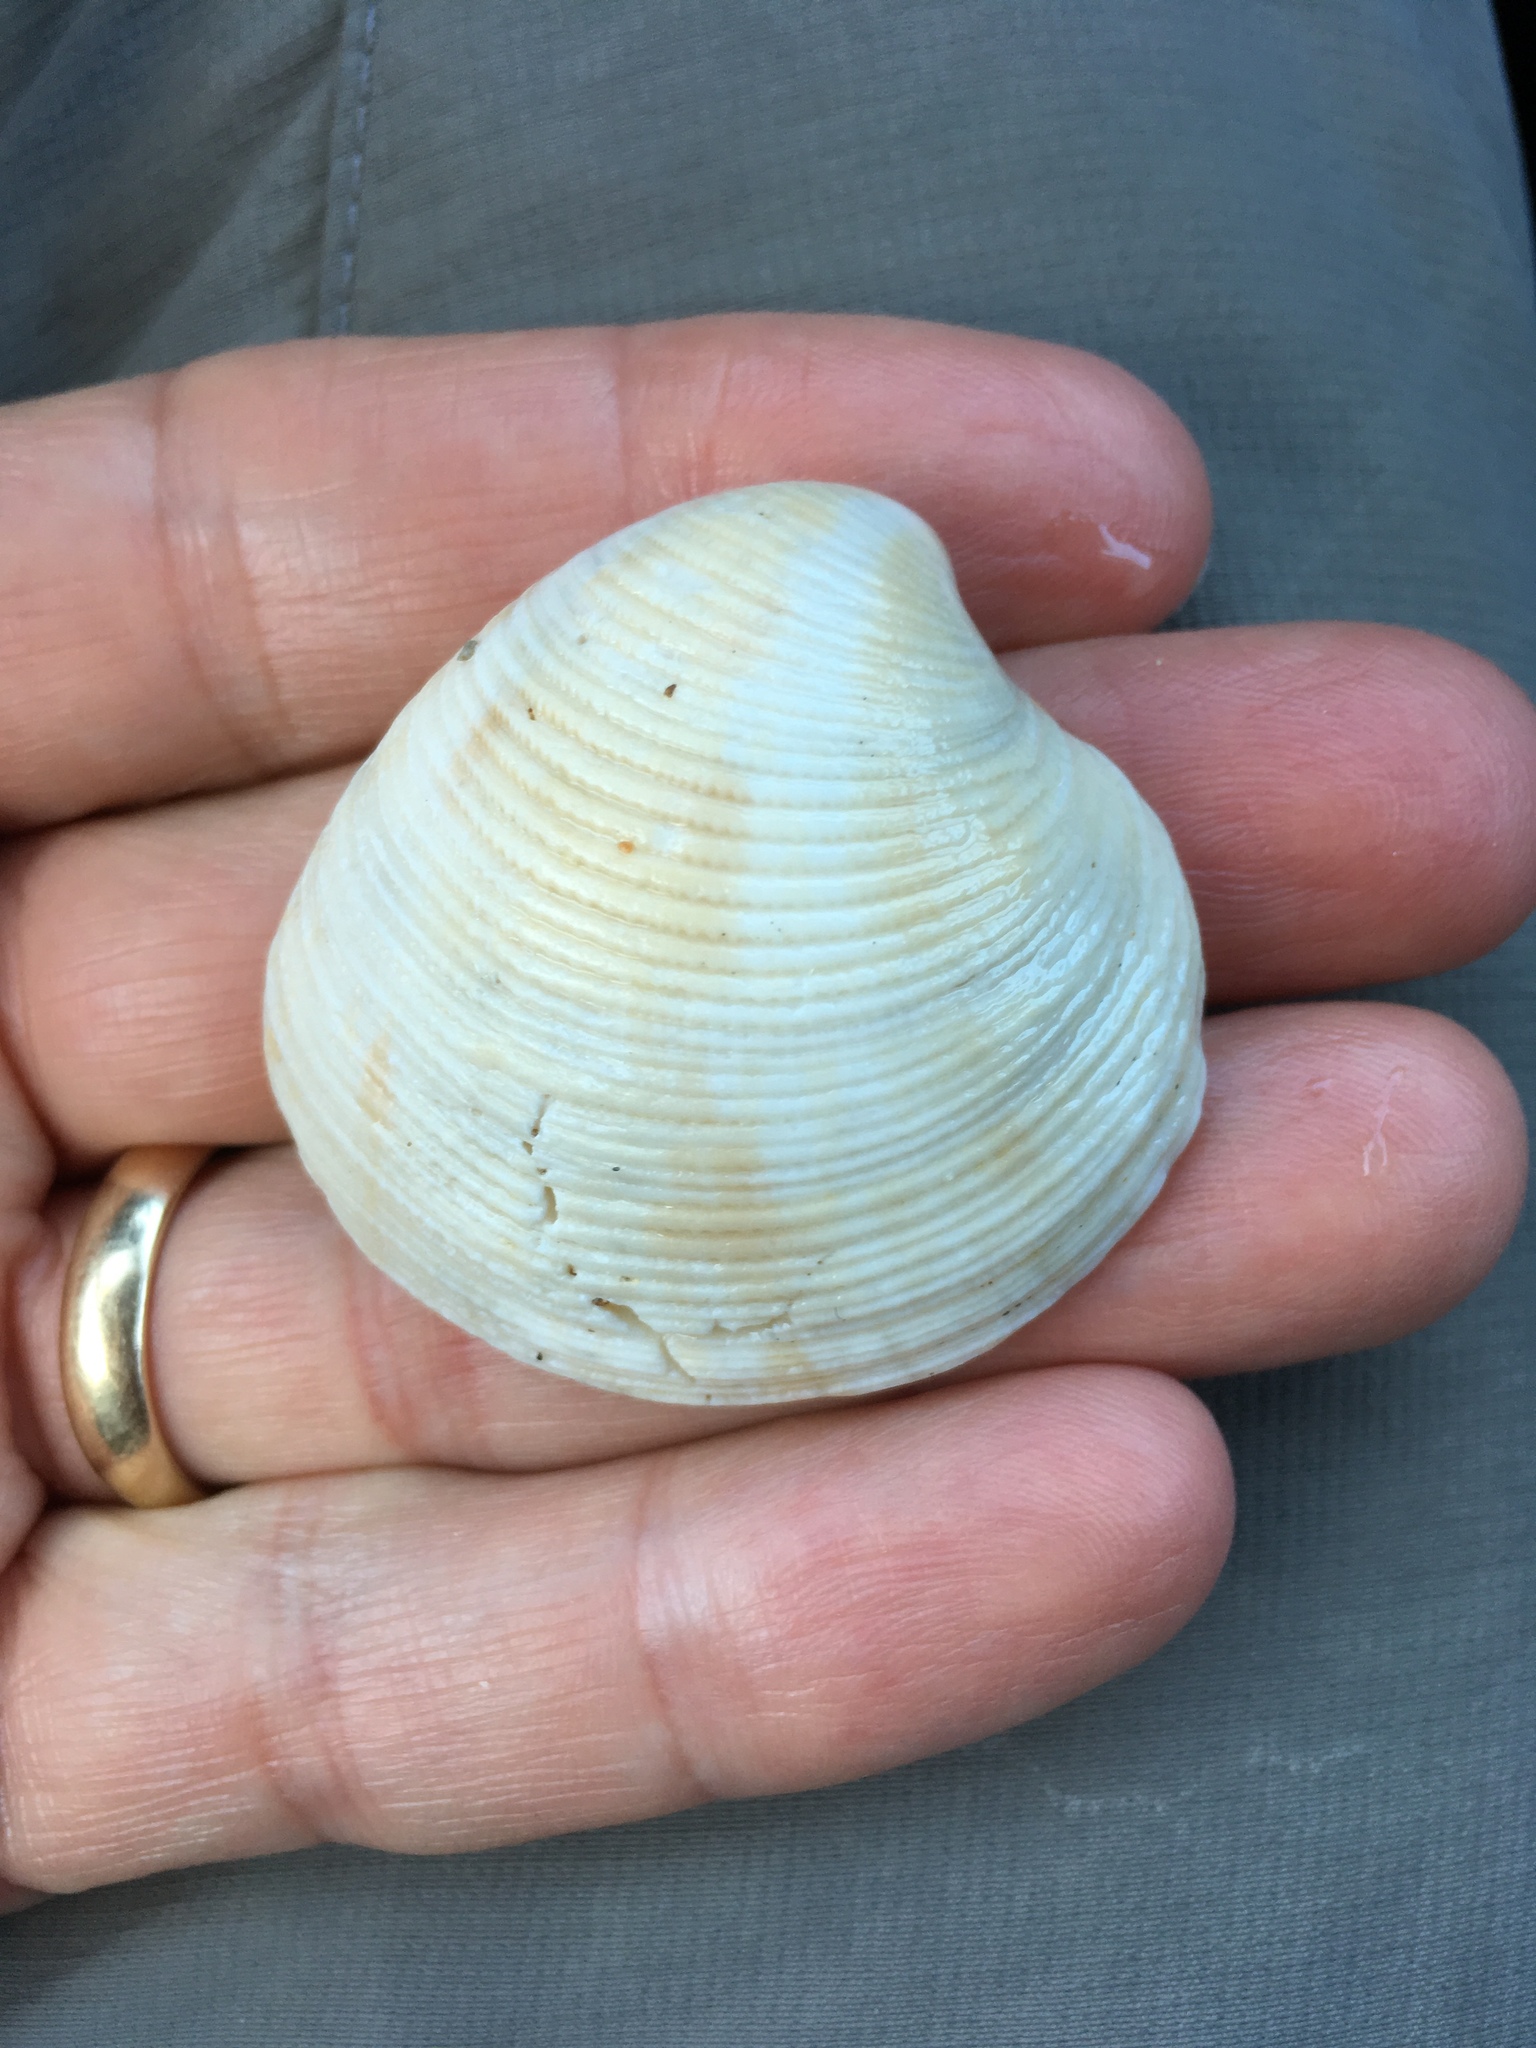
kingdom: Animalia
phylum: Mollusca
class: Bivalvia
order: Venerida
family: Veneridae
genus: Chionopsis
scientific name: Chionopsis intapurpurea
